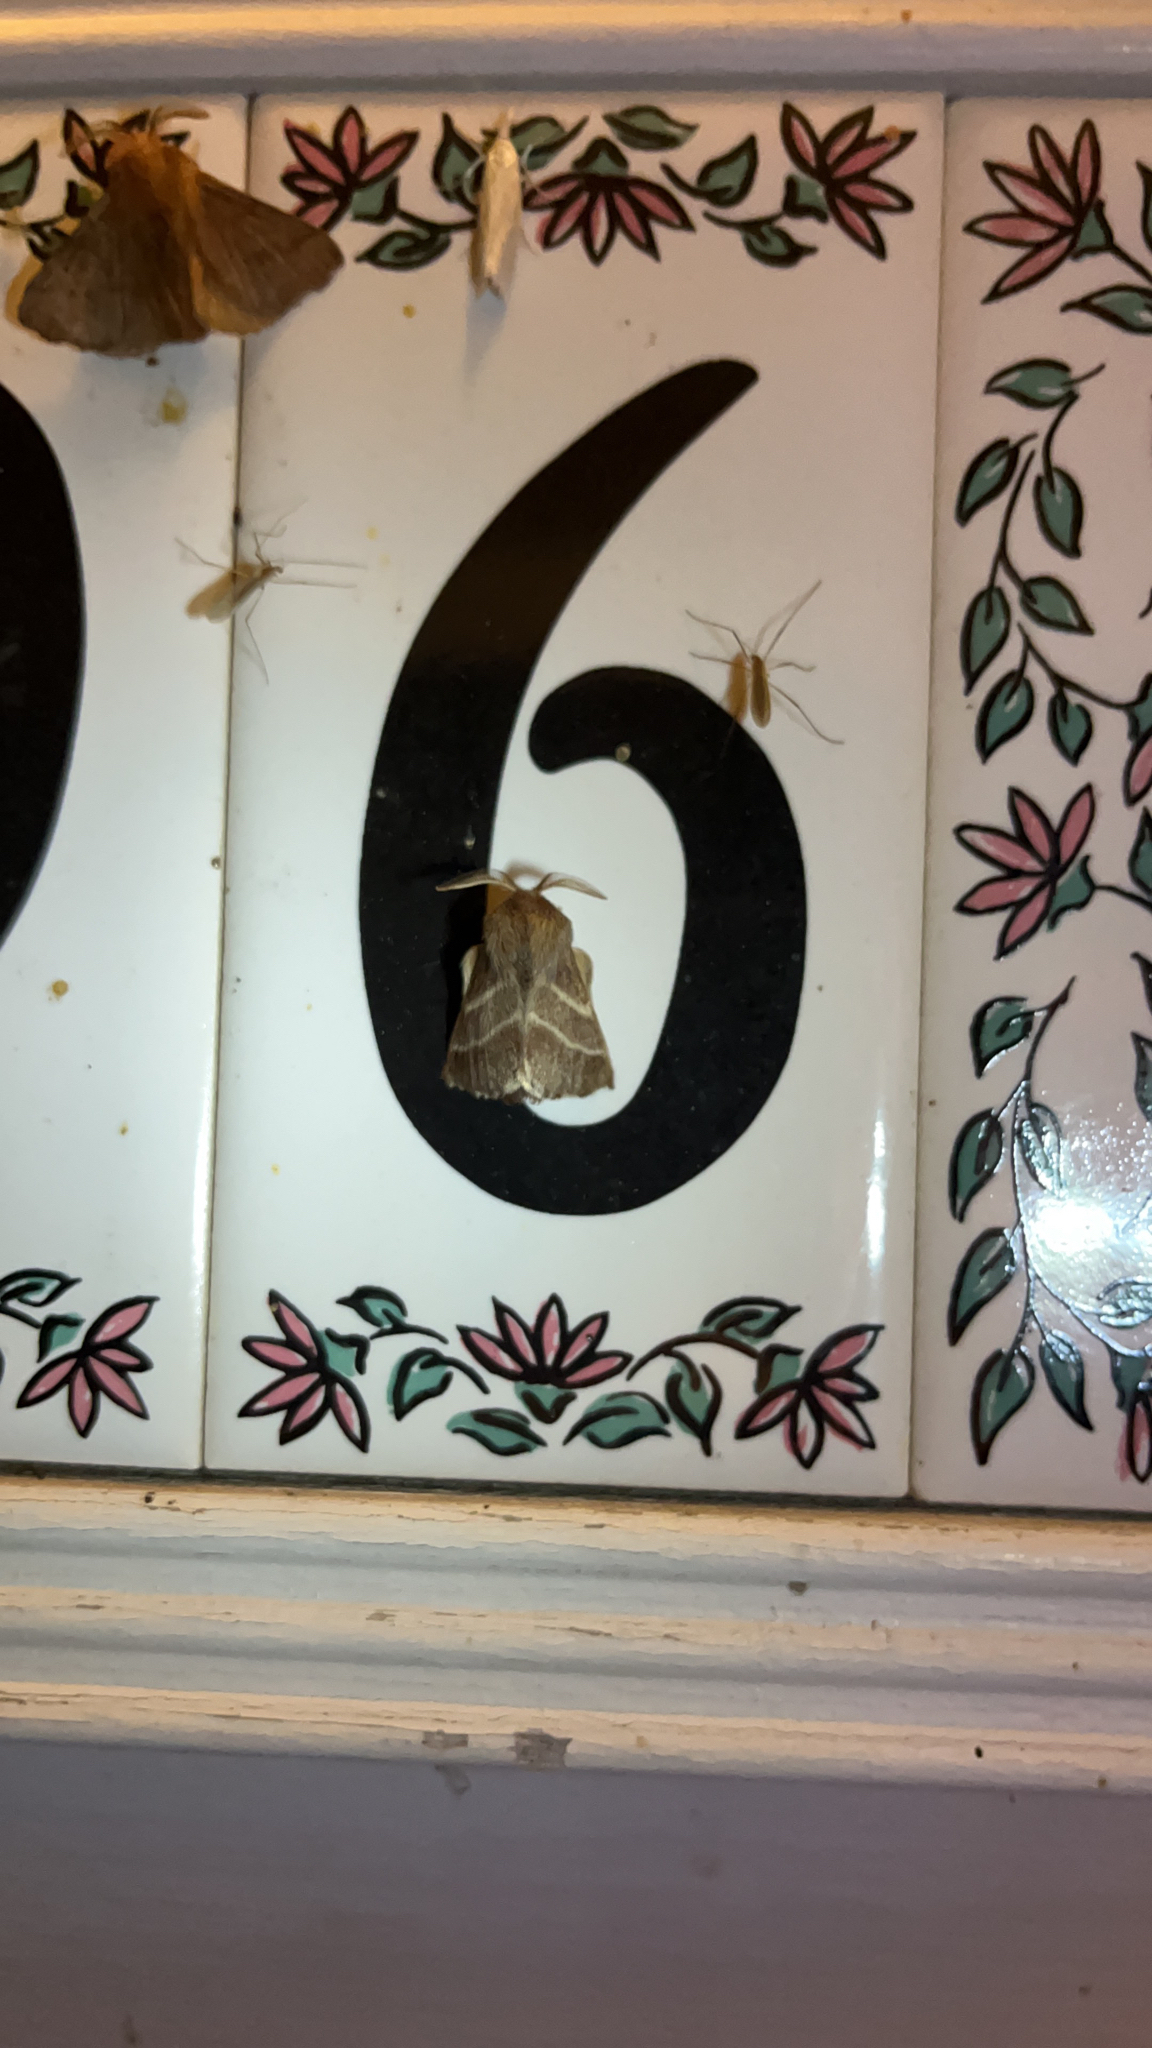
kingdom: Animalia
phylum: Arthropoda
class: Insecta
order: Lepidoptera
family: Lasiocampidae
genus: Malacosoma
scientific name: Malacosoma americana
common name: Eastern tent caterpillar moth
